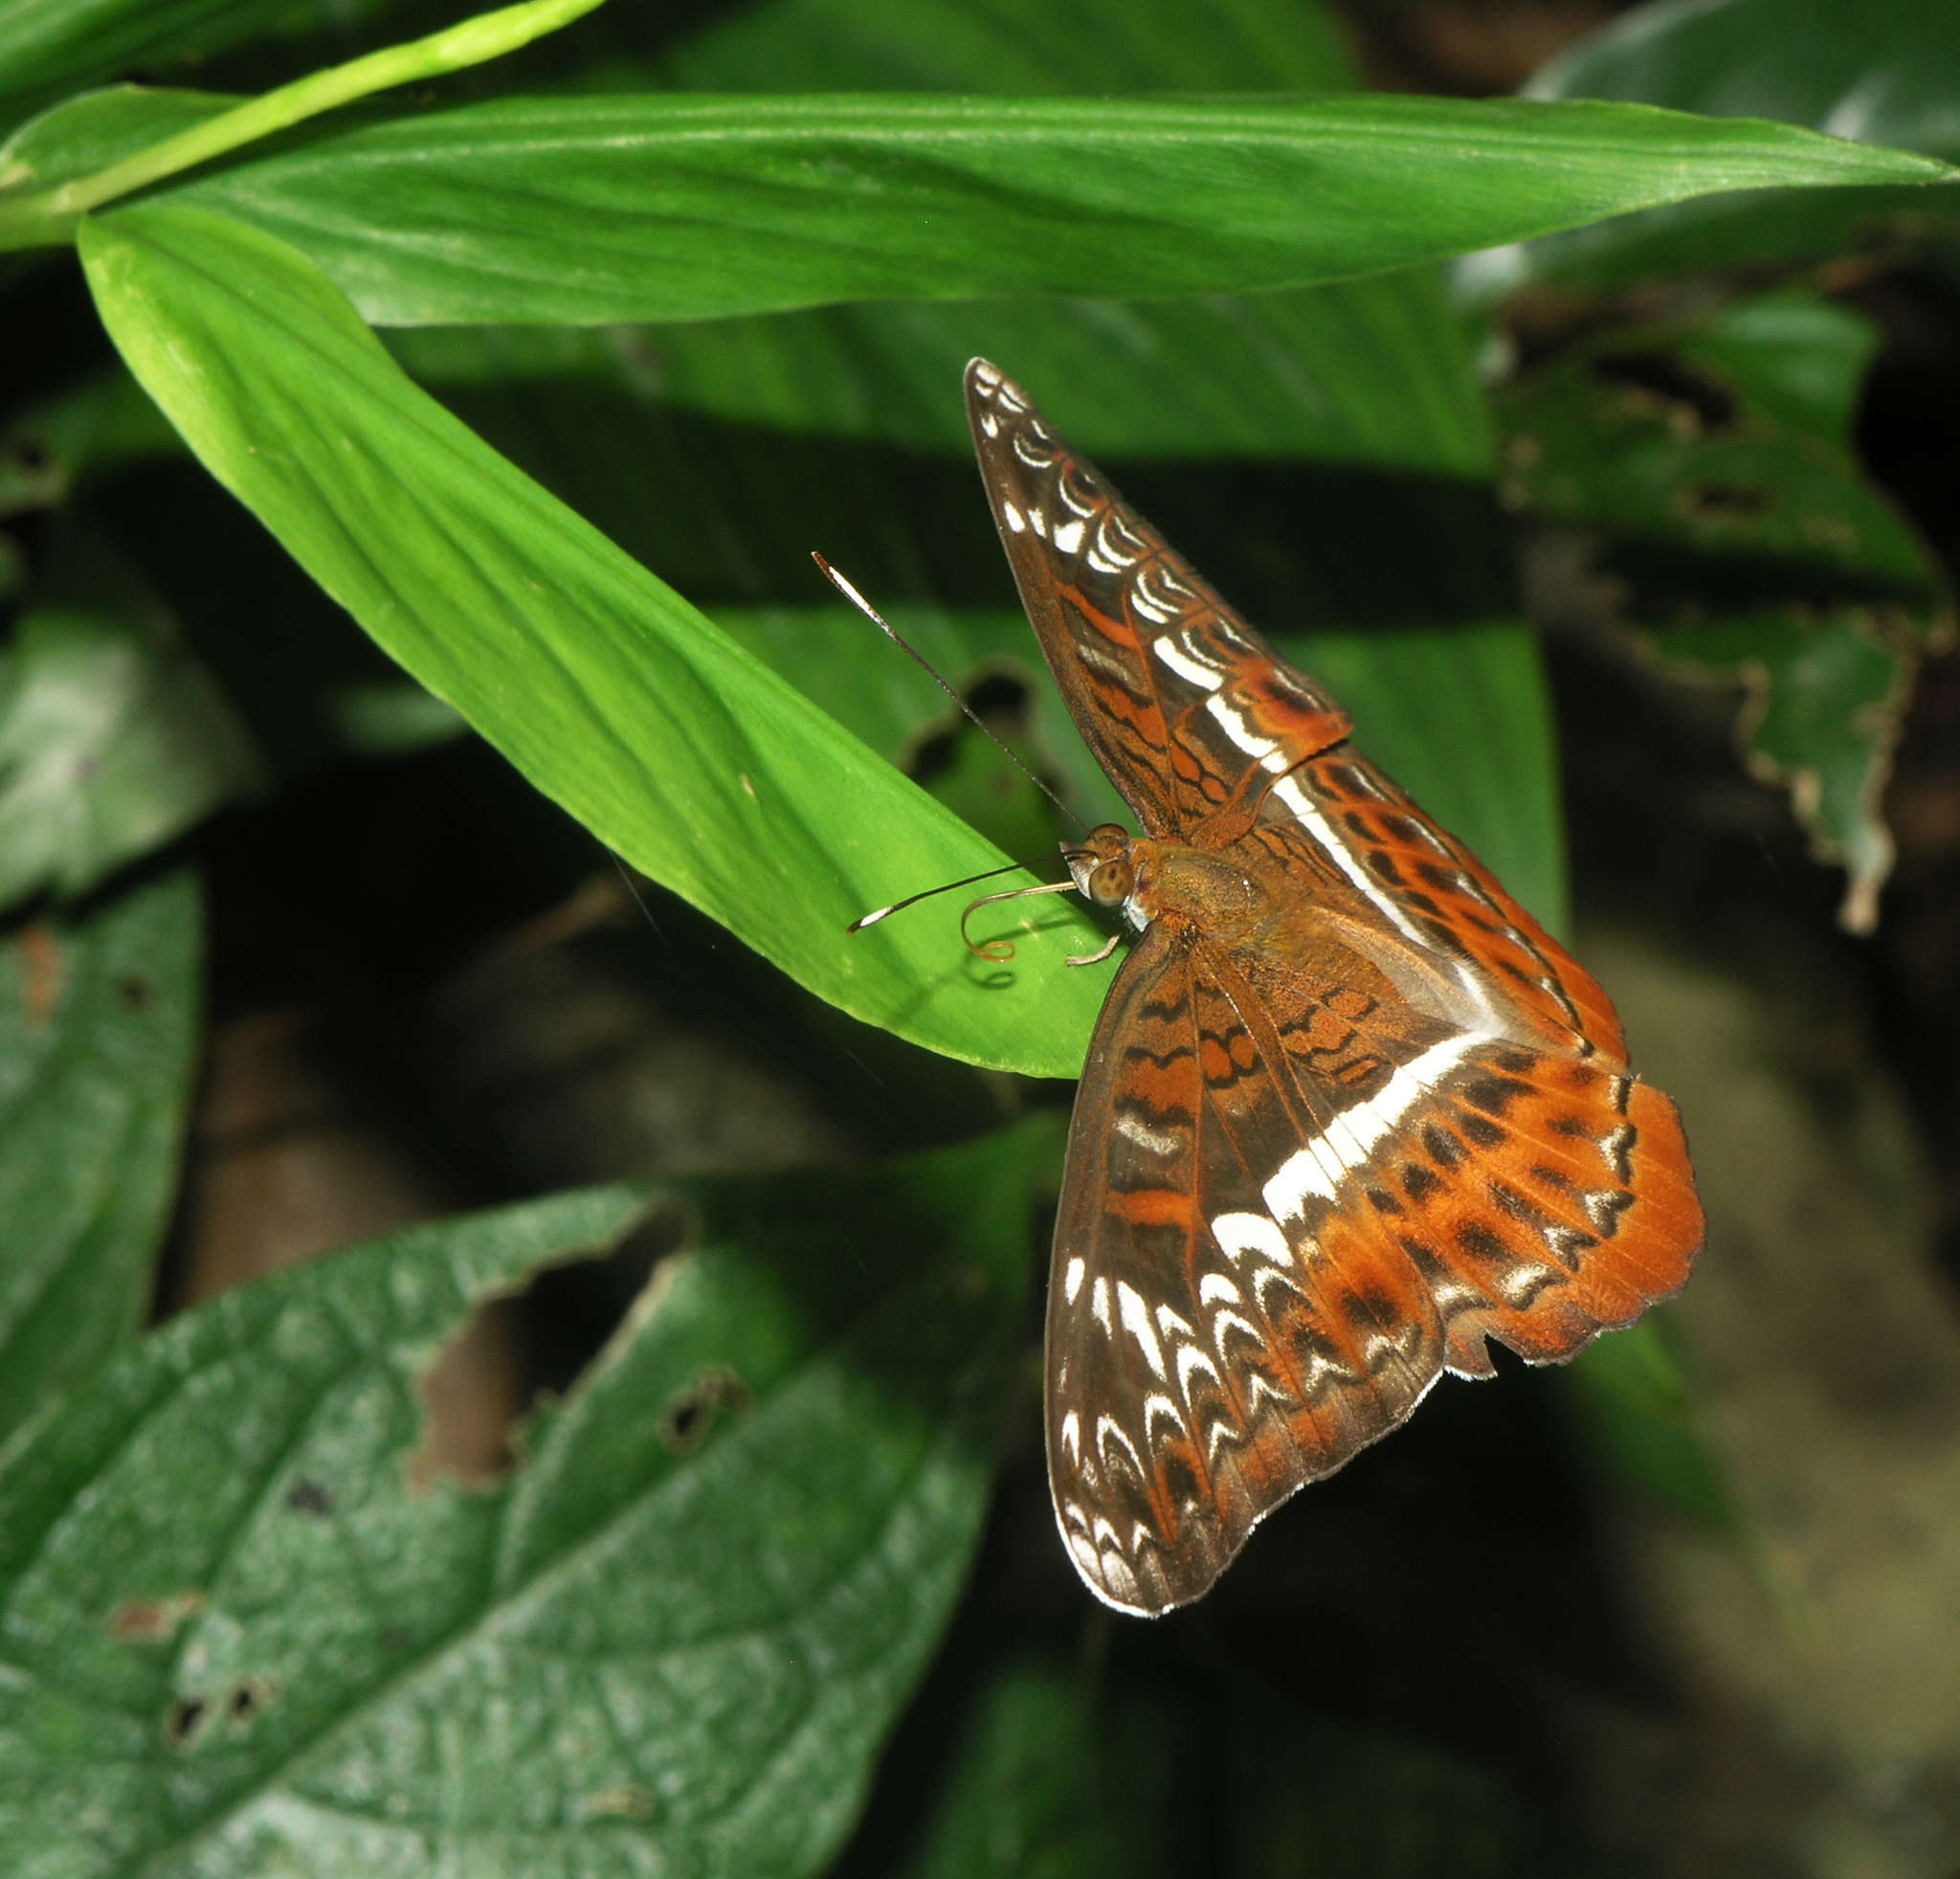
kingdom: Animalia
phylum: Arthropoda
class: Insecta
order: Lepidoptera
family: Nymphalidae
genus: Lebadea
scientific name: Lebadea martha
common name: Knight
